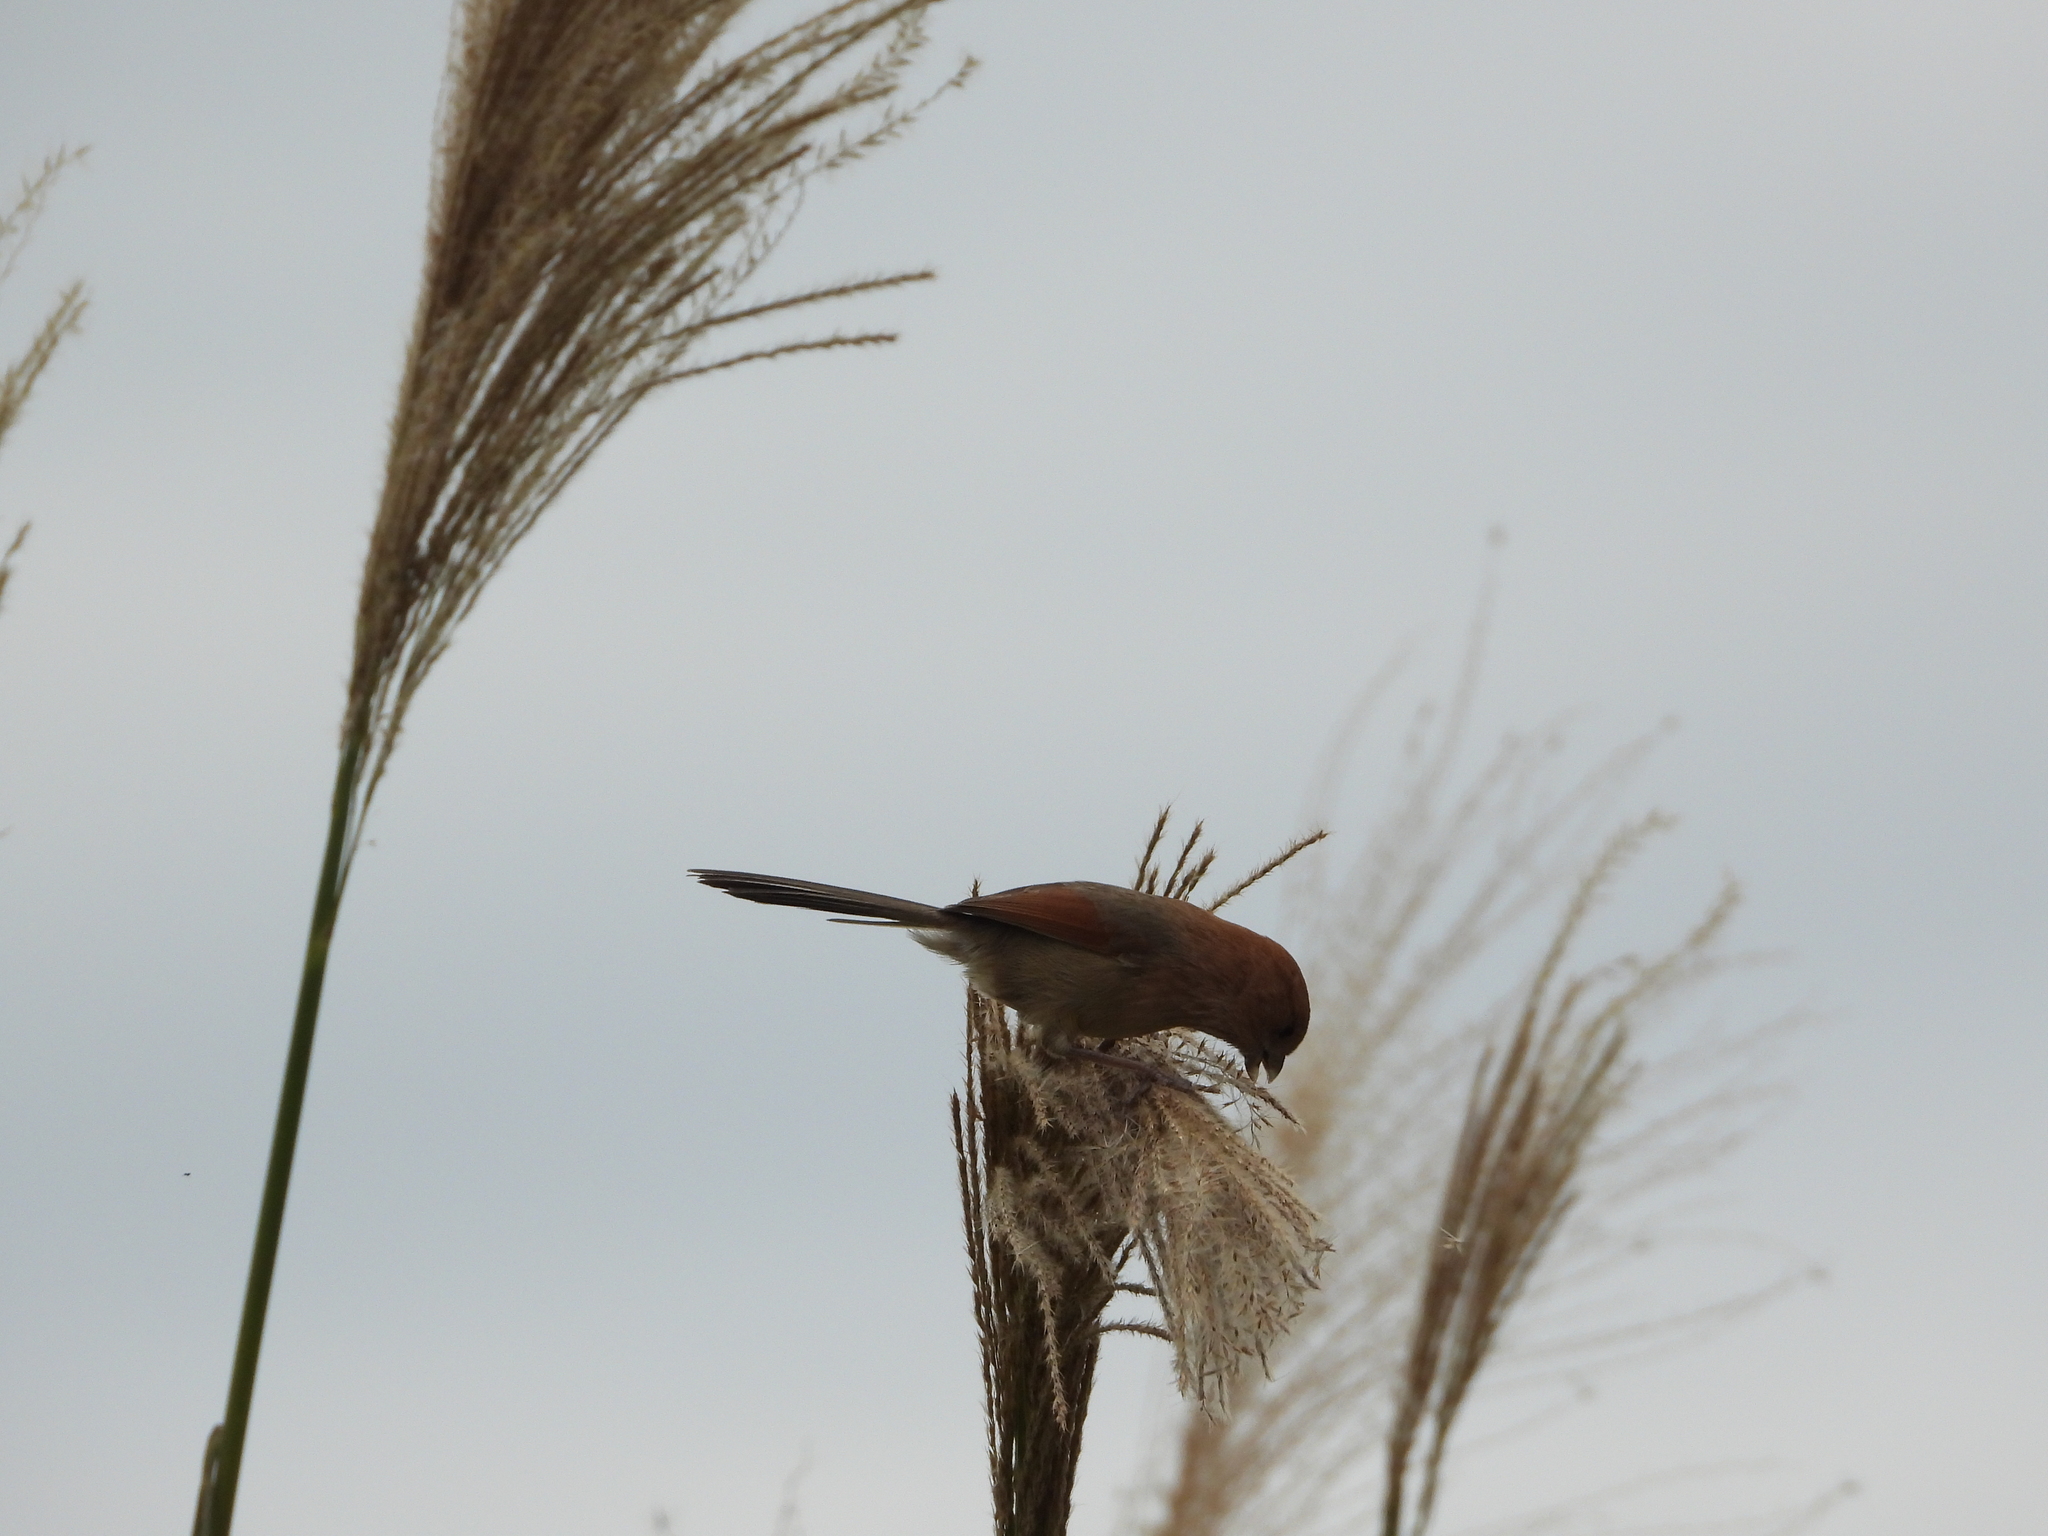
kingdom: Animalia
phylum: Chordata
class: Aves
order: Passeriformes
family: Sylviidae
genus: Sinosuthora
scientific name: Sinosuthora webbiana
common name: Vinous-throated parrotbill
